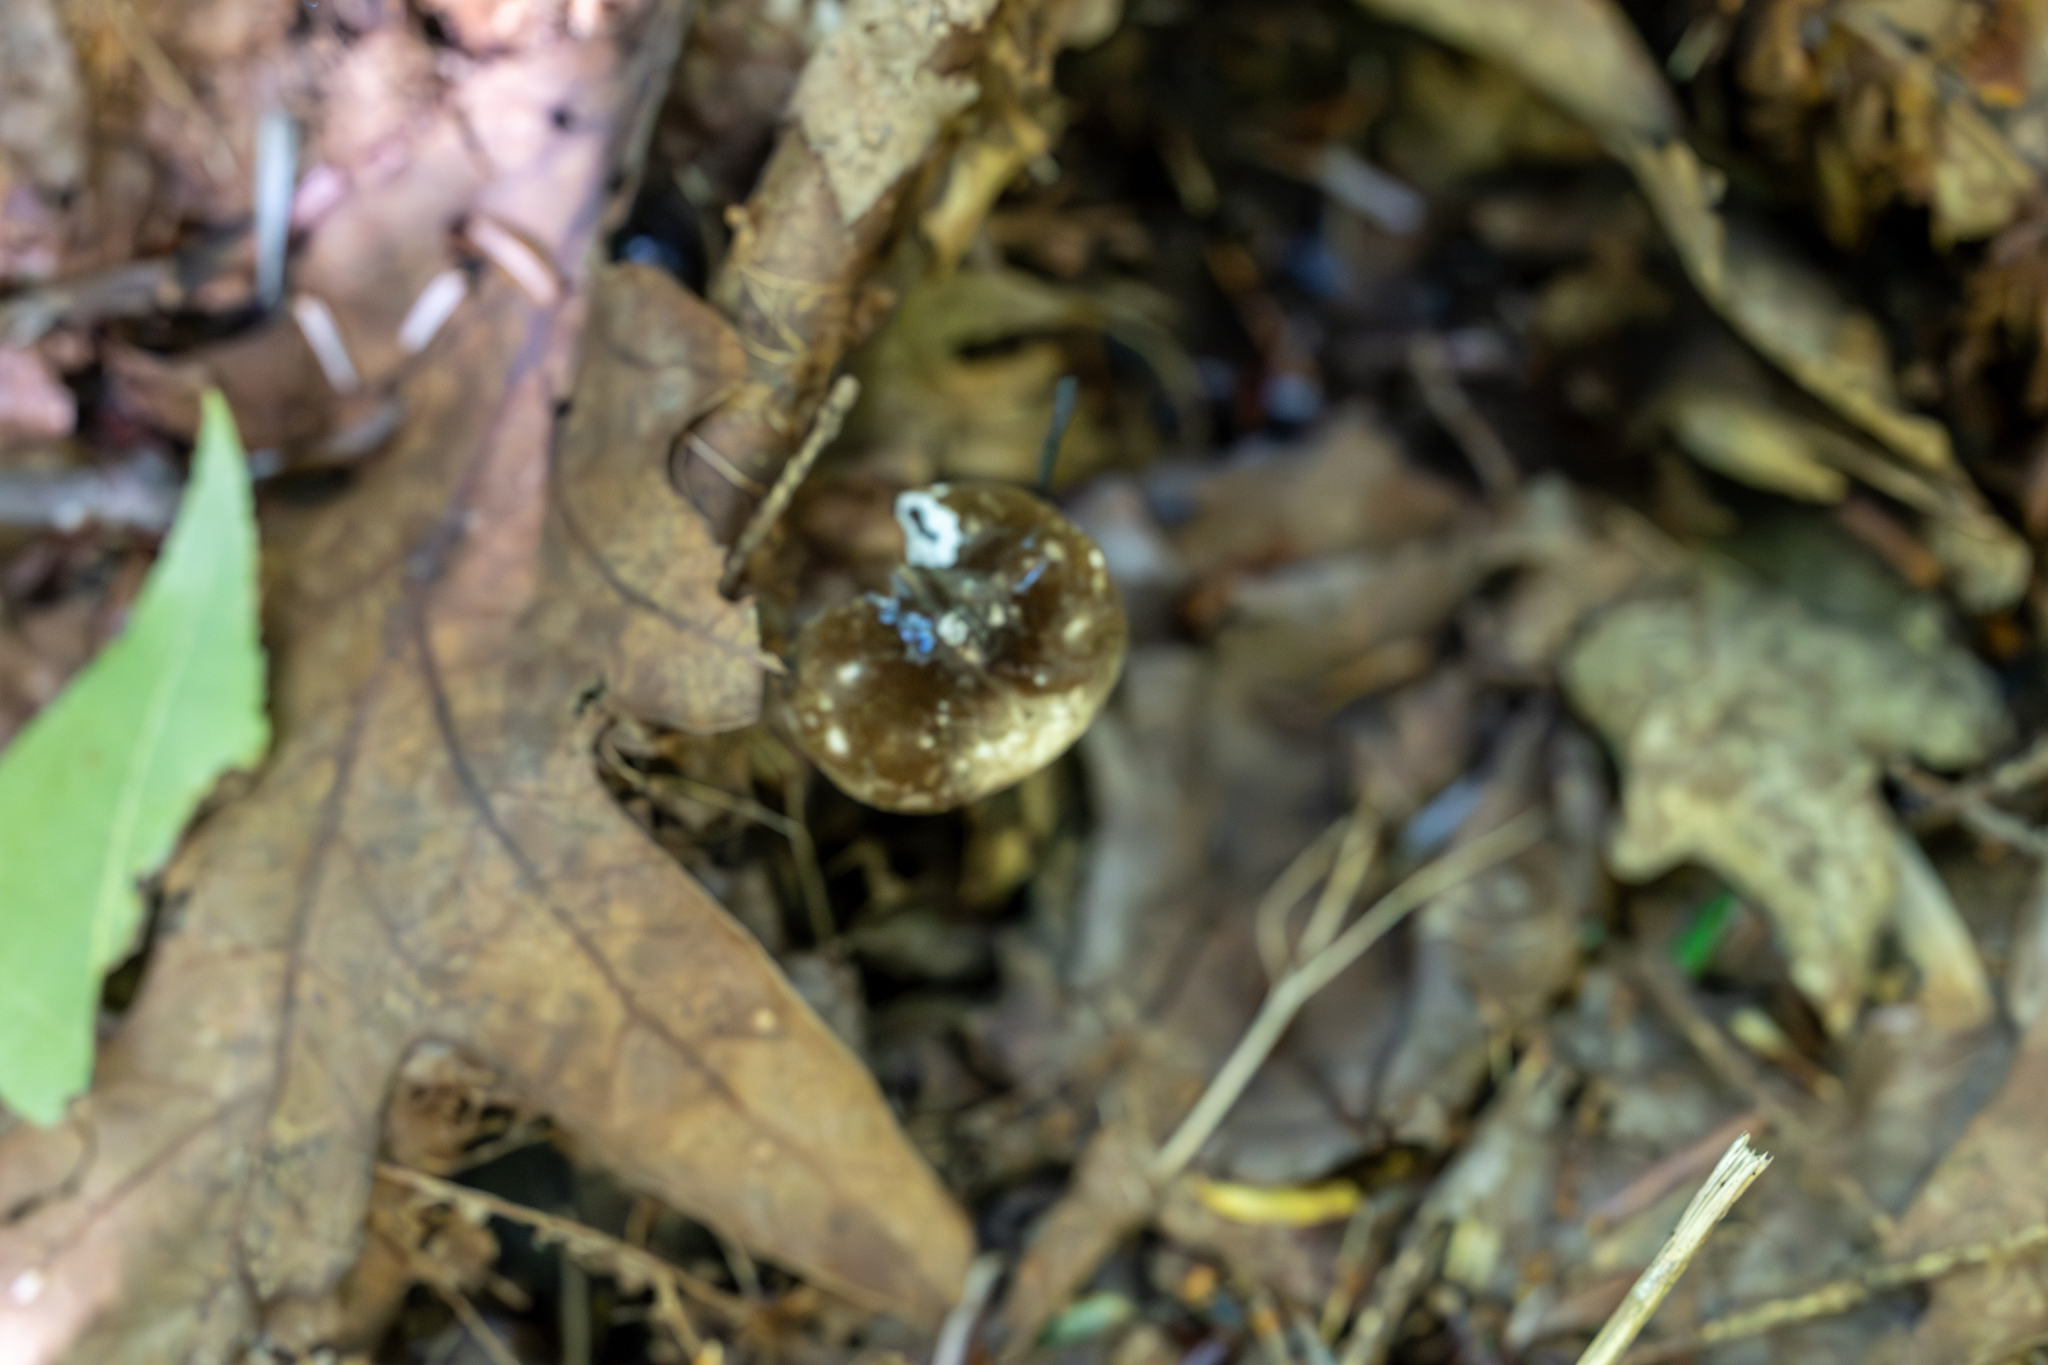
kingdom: Fungi
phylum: Basidiomycota
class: Agaricomycetes
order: Russulales
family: Russulaceae
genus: Lactarius
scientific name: Lactarius gerardii
